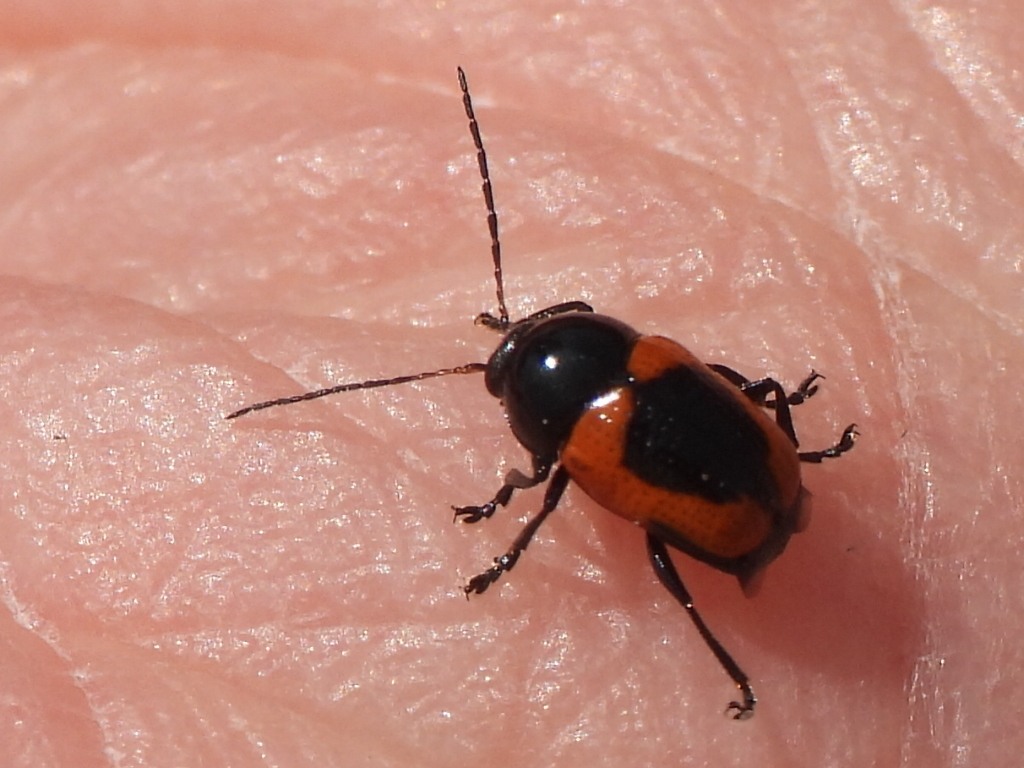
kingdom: Animalia
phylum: Arthropoda
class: Insecta
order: Coleoptera
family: Chrysomelidae
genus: Cryptocephalus
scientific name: Cryptocephalus notatus
